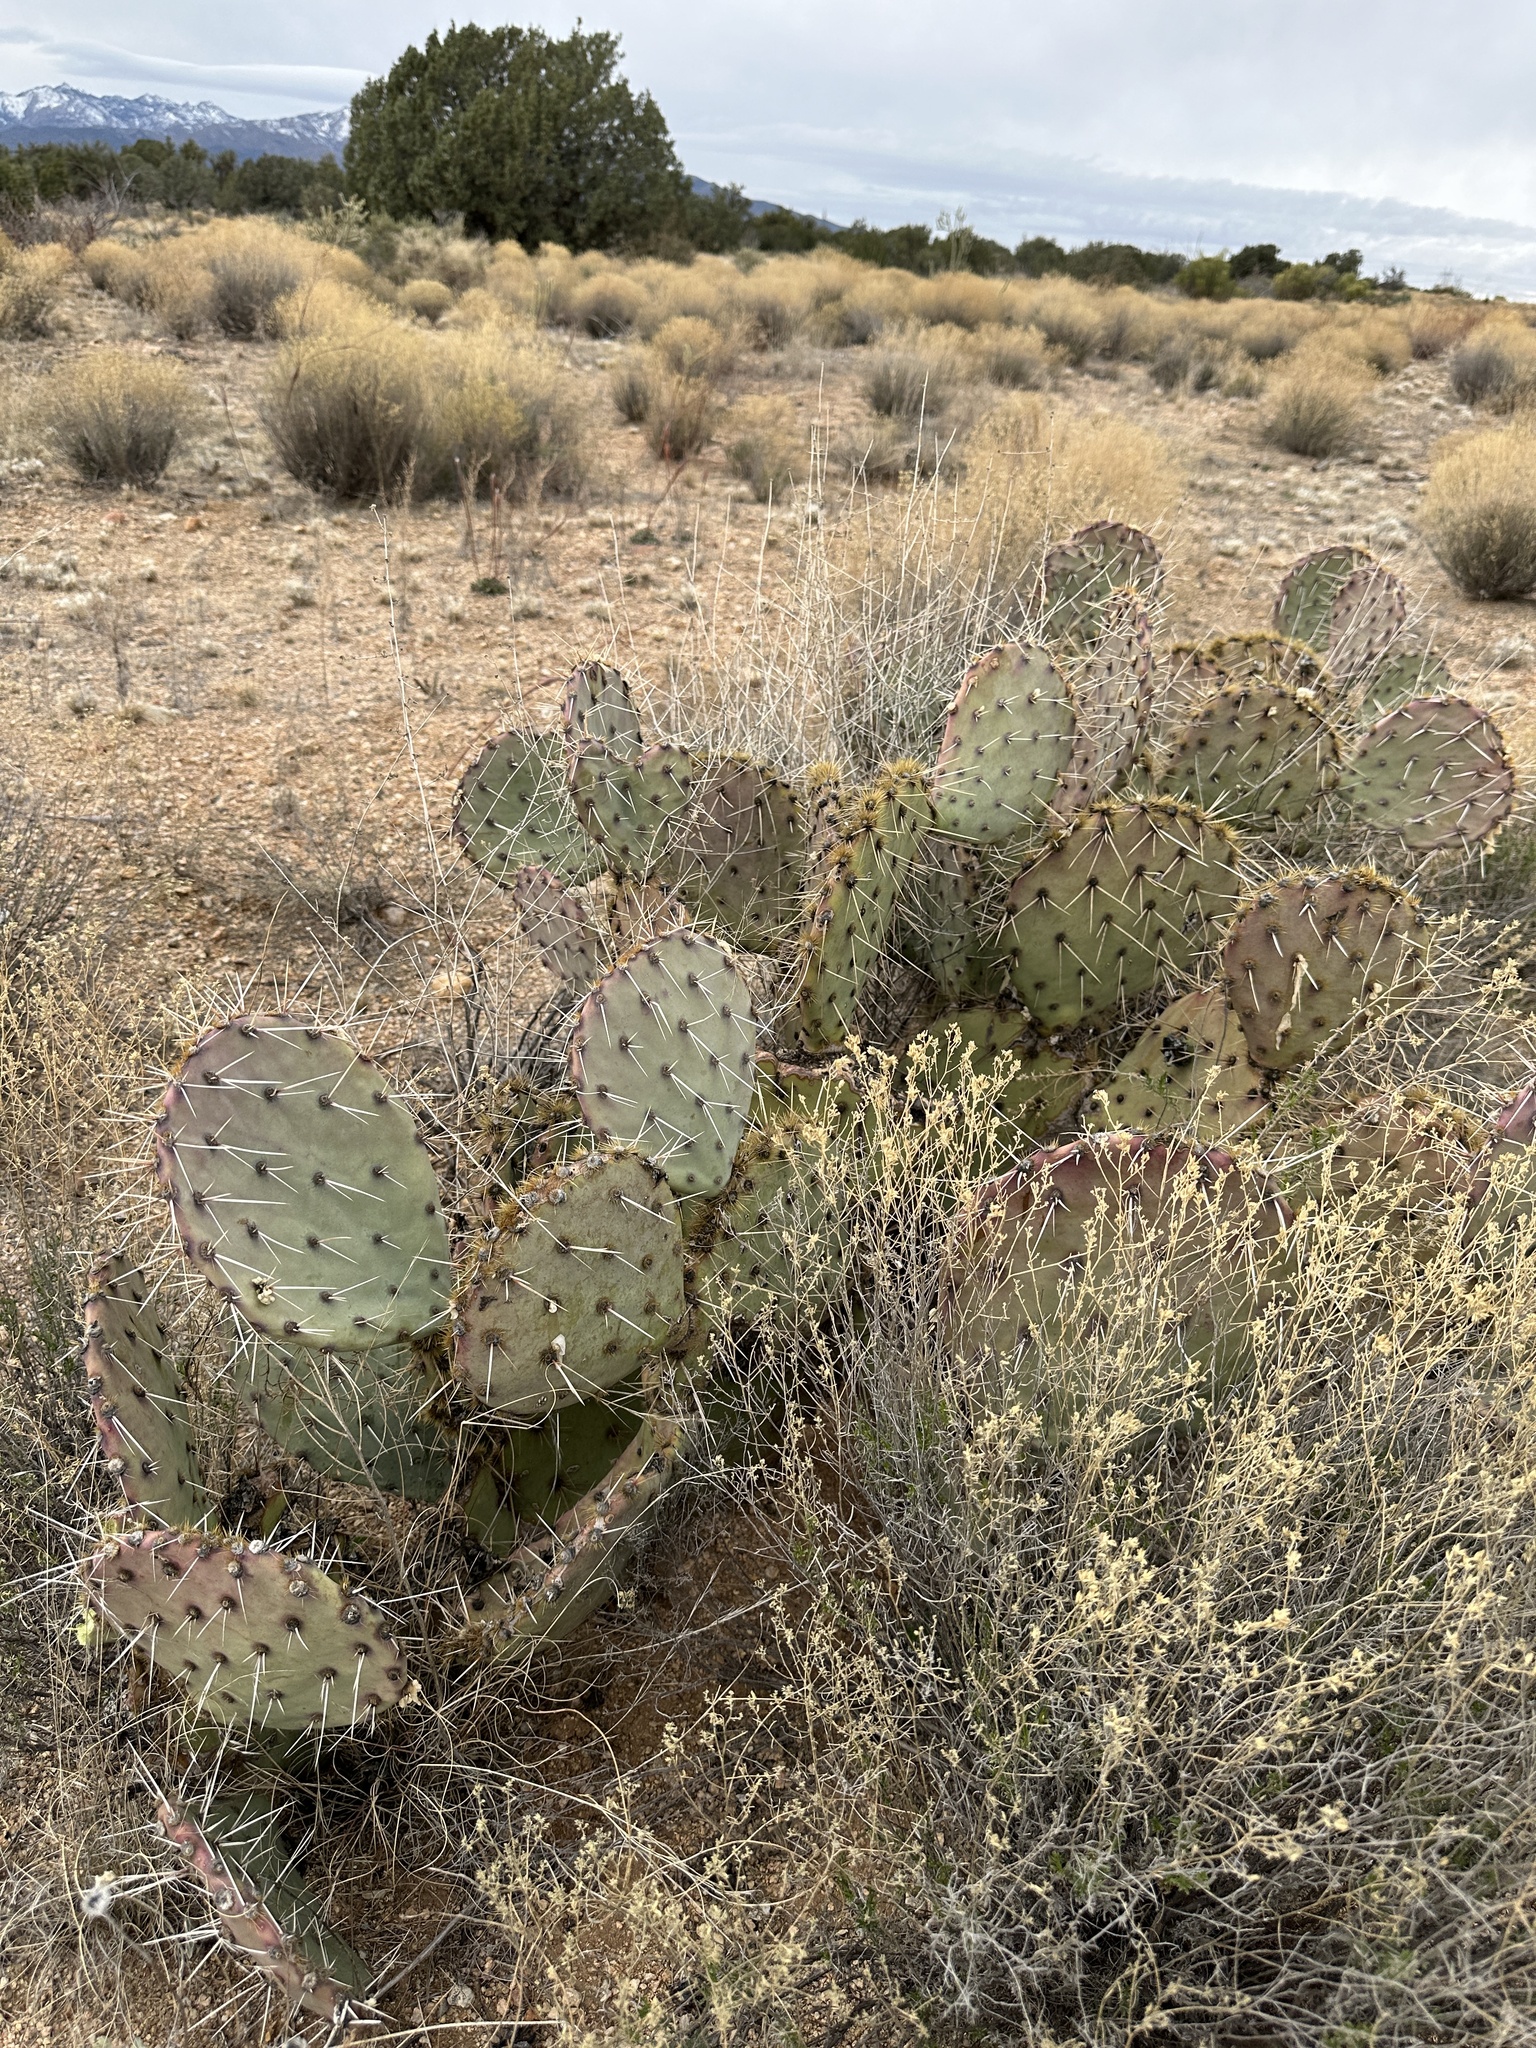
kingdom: Plantae
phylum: Tracheophyta
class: Magnoliopsida
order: Caryophyllales
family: Cactaceae
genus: Opuntia
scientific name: Opuntia phaeacantha
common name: New mexico prickly-pear
